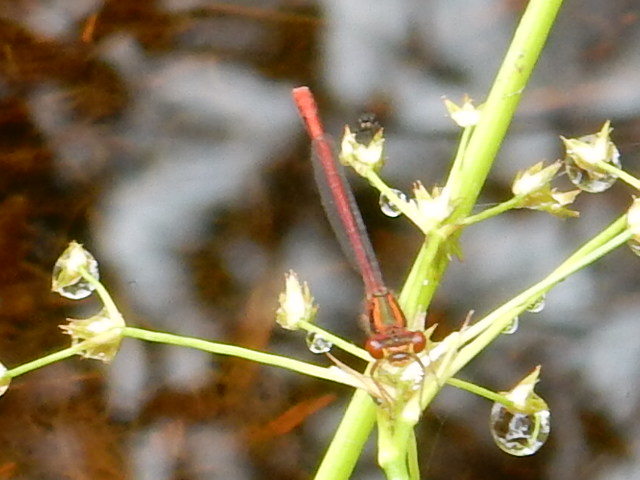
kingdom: Animalia
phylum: Arthropoda
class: Insecta
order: Odonata
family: Coenagrionidae
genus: Xanthocnemis
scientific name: Xanthocnemis zealandica
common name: Common redcoat damselfly
